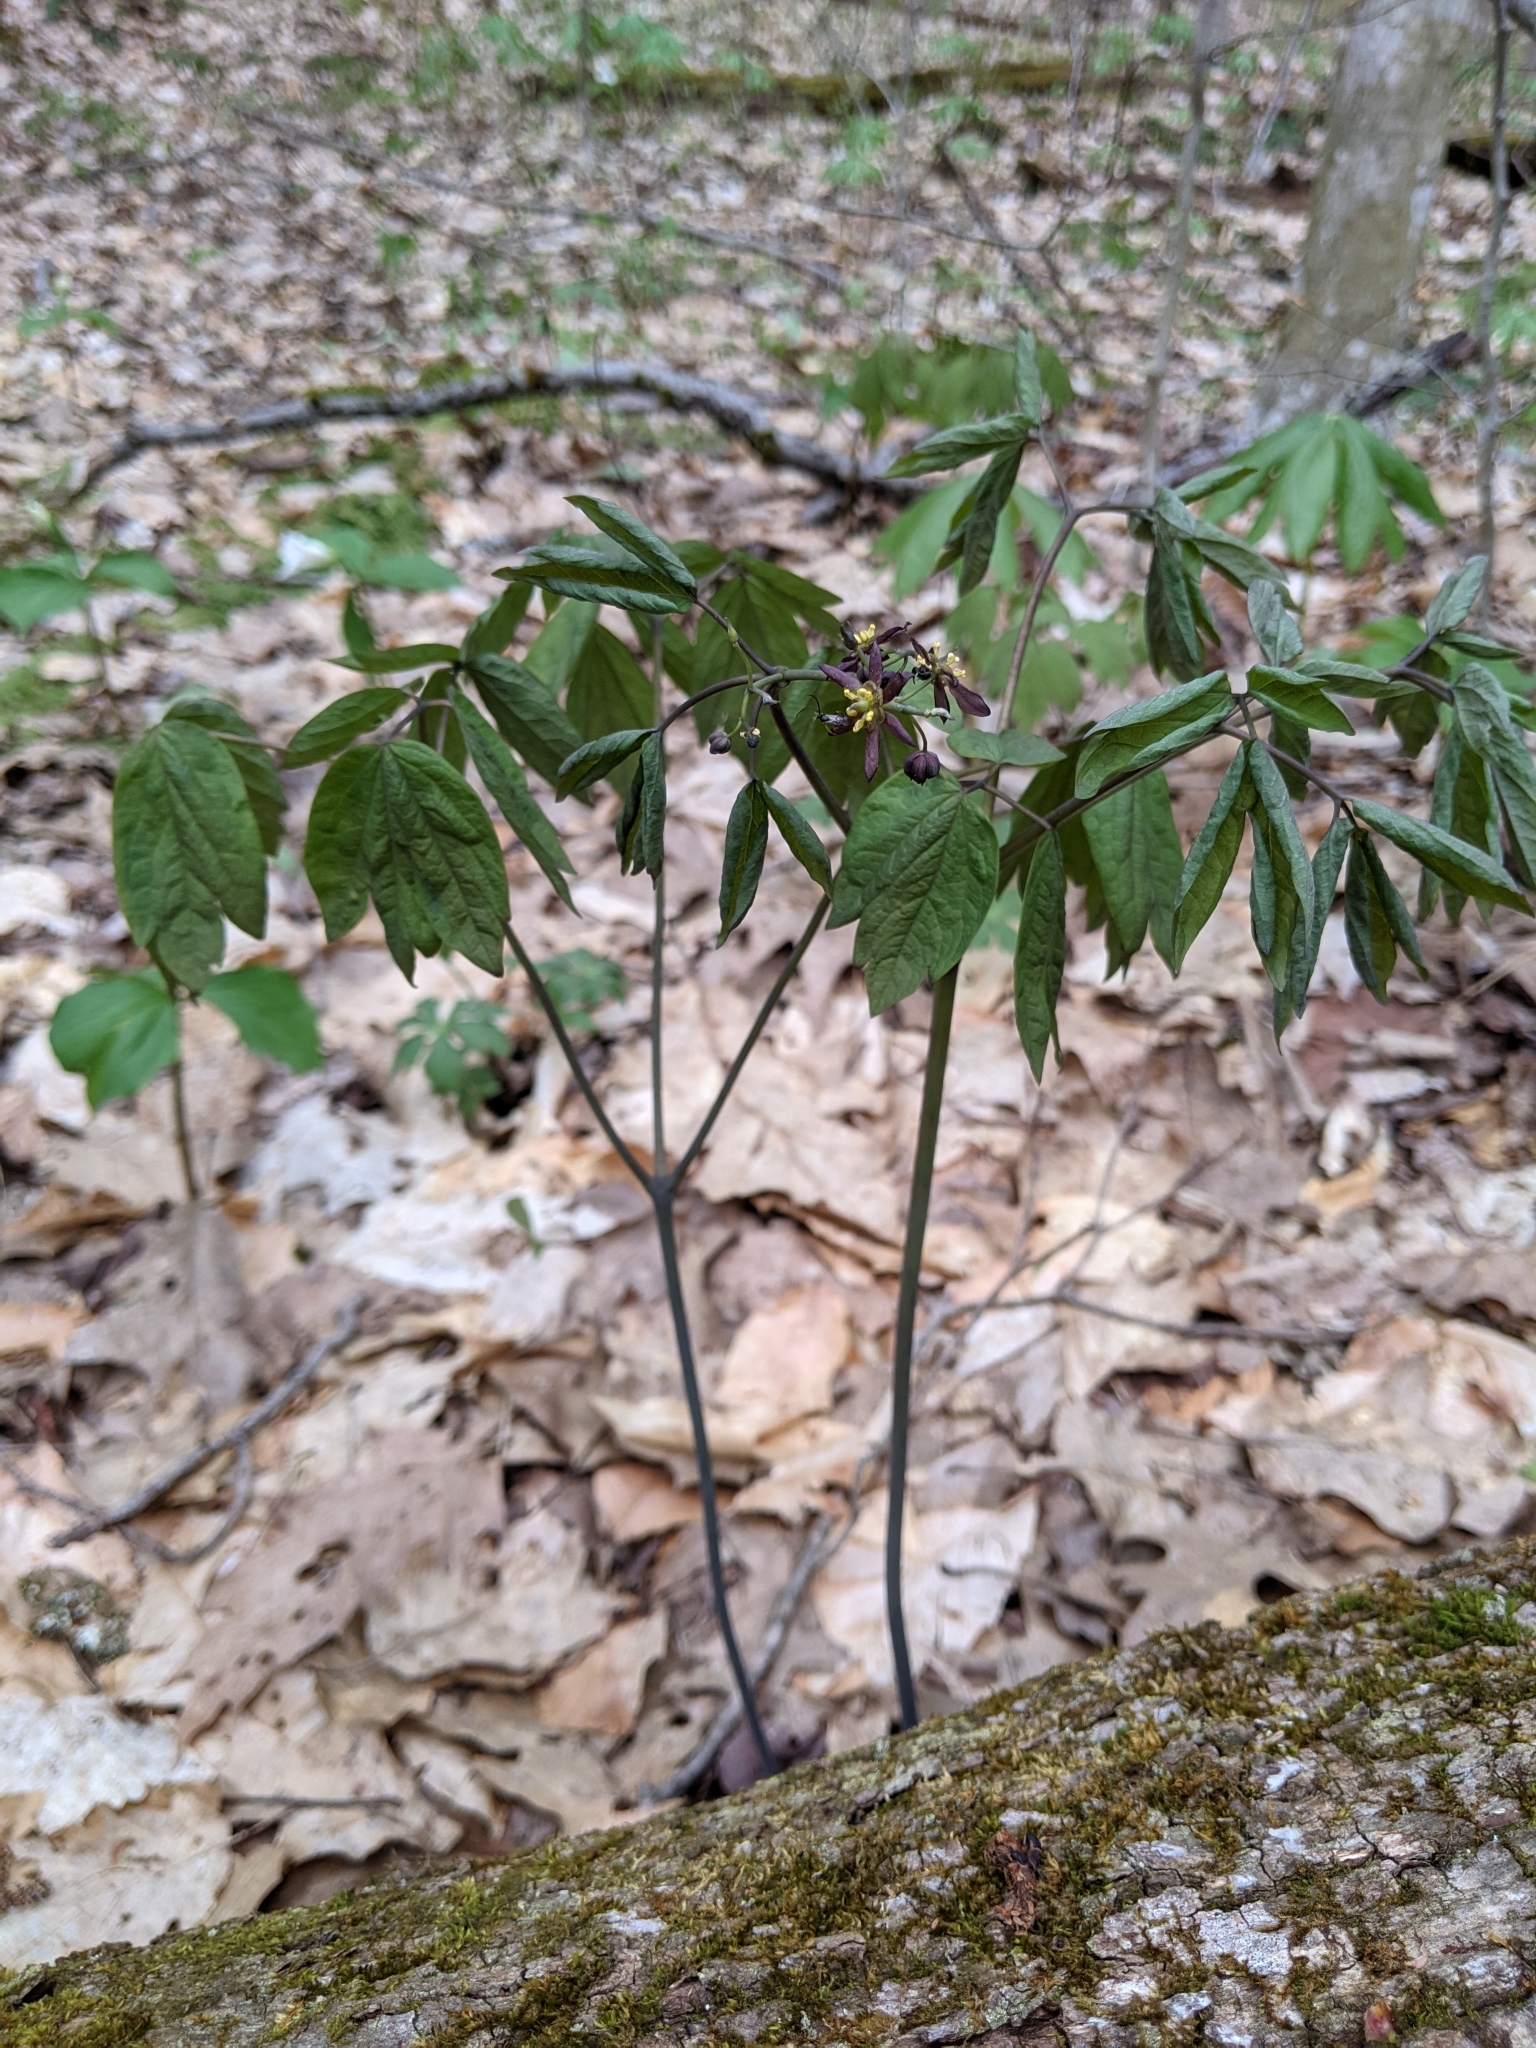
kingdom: Plantae
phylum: Tracheophyta
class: Magnoliopsida
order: Ranunculales
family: Berberidaceae
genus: Caulophyllum
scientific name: Caulophyllum giganteum
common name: Blue cohosh
